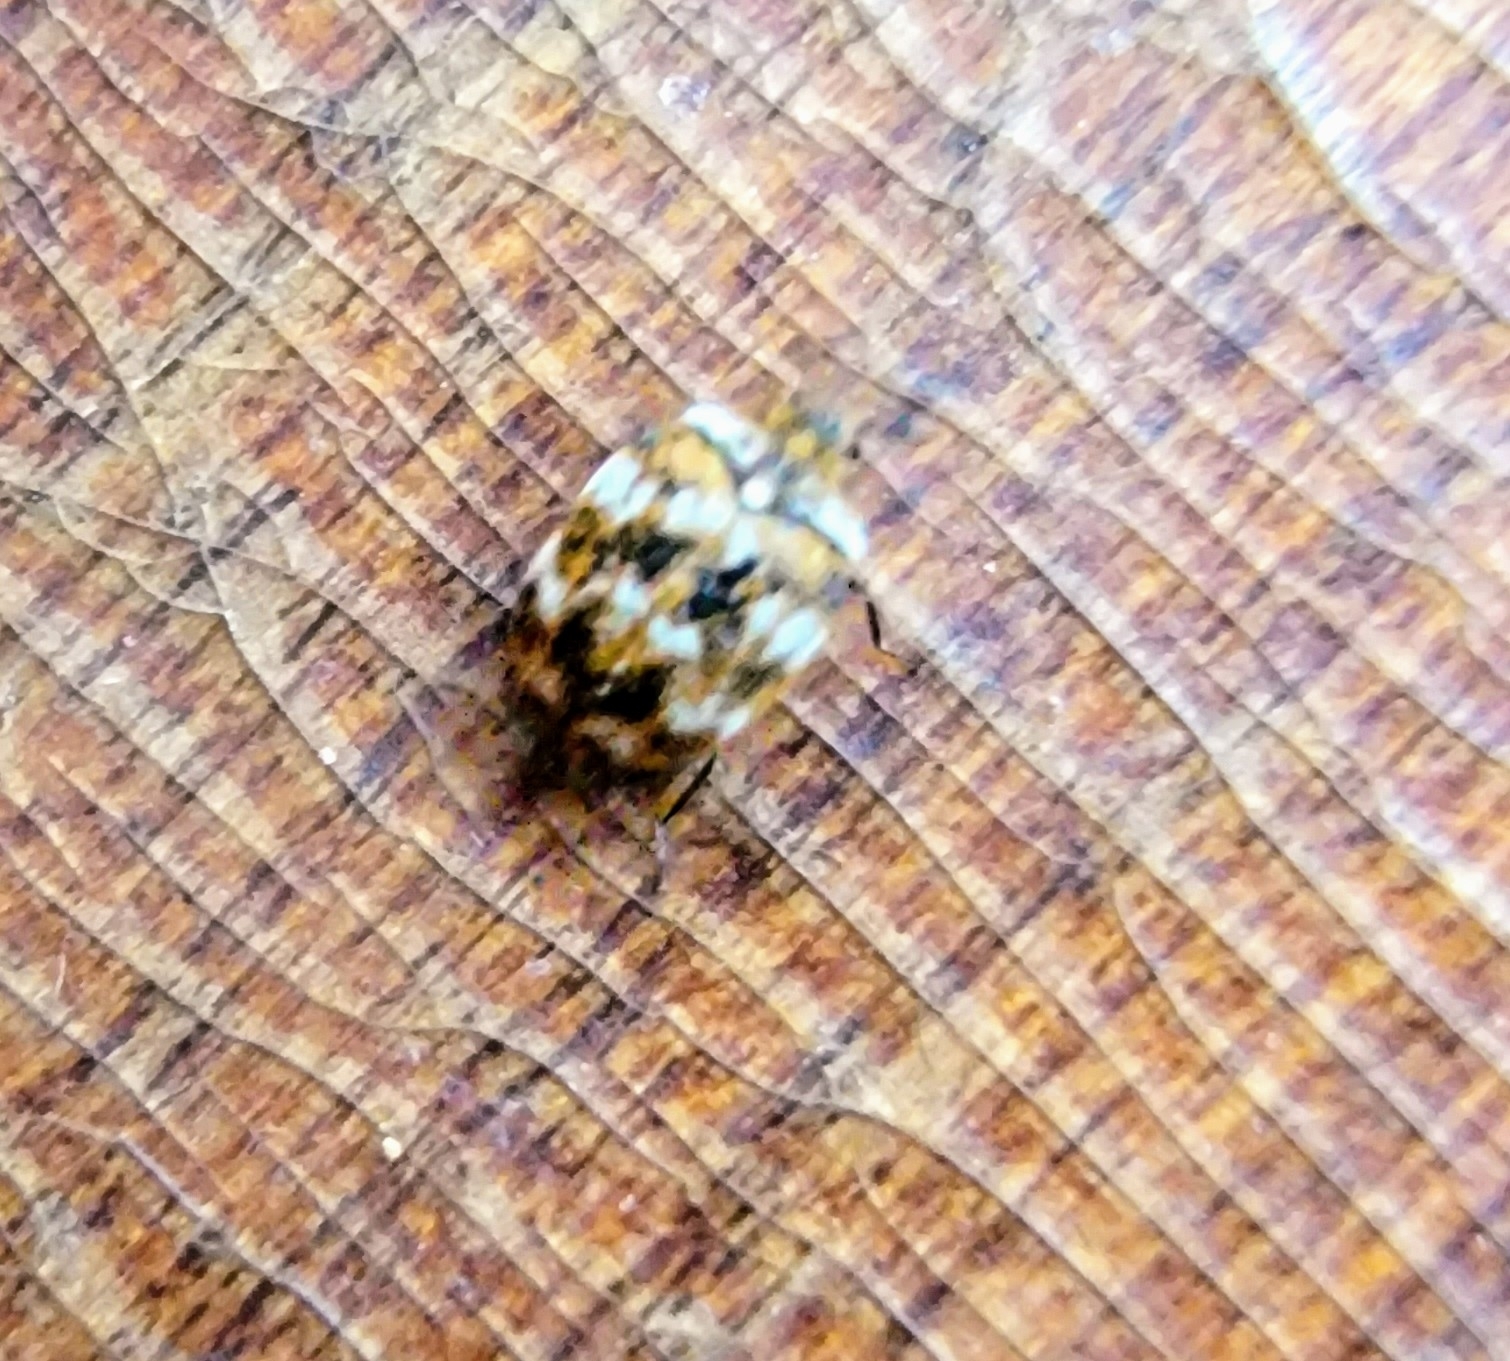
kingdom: Animalia
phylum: Arthropoda
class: Insecta
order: Coleoptera
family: Dermestidae
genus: Anthrenus
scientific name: Anthrenus verbasci
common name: Varied carpet beetle
